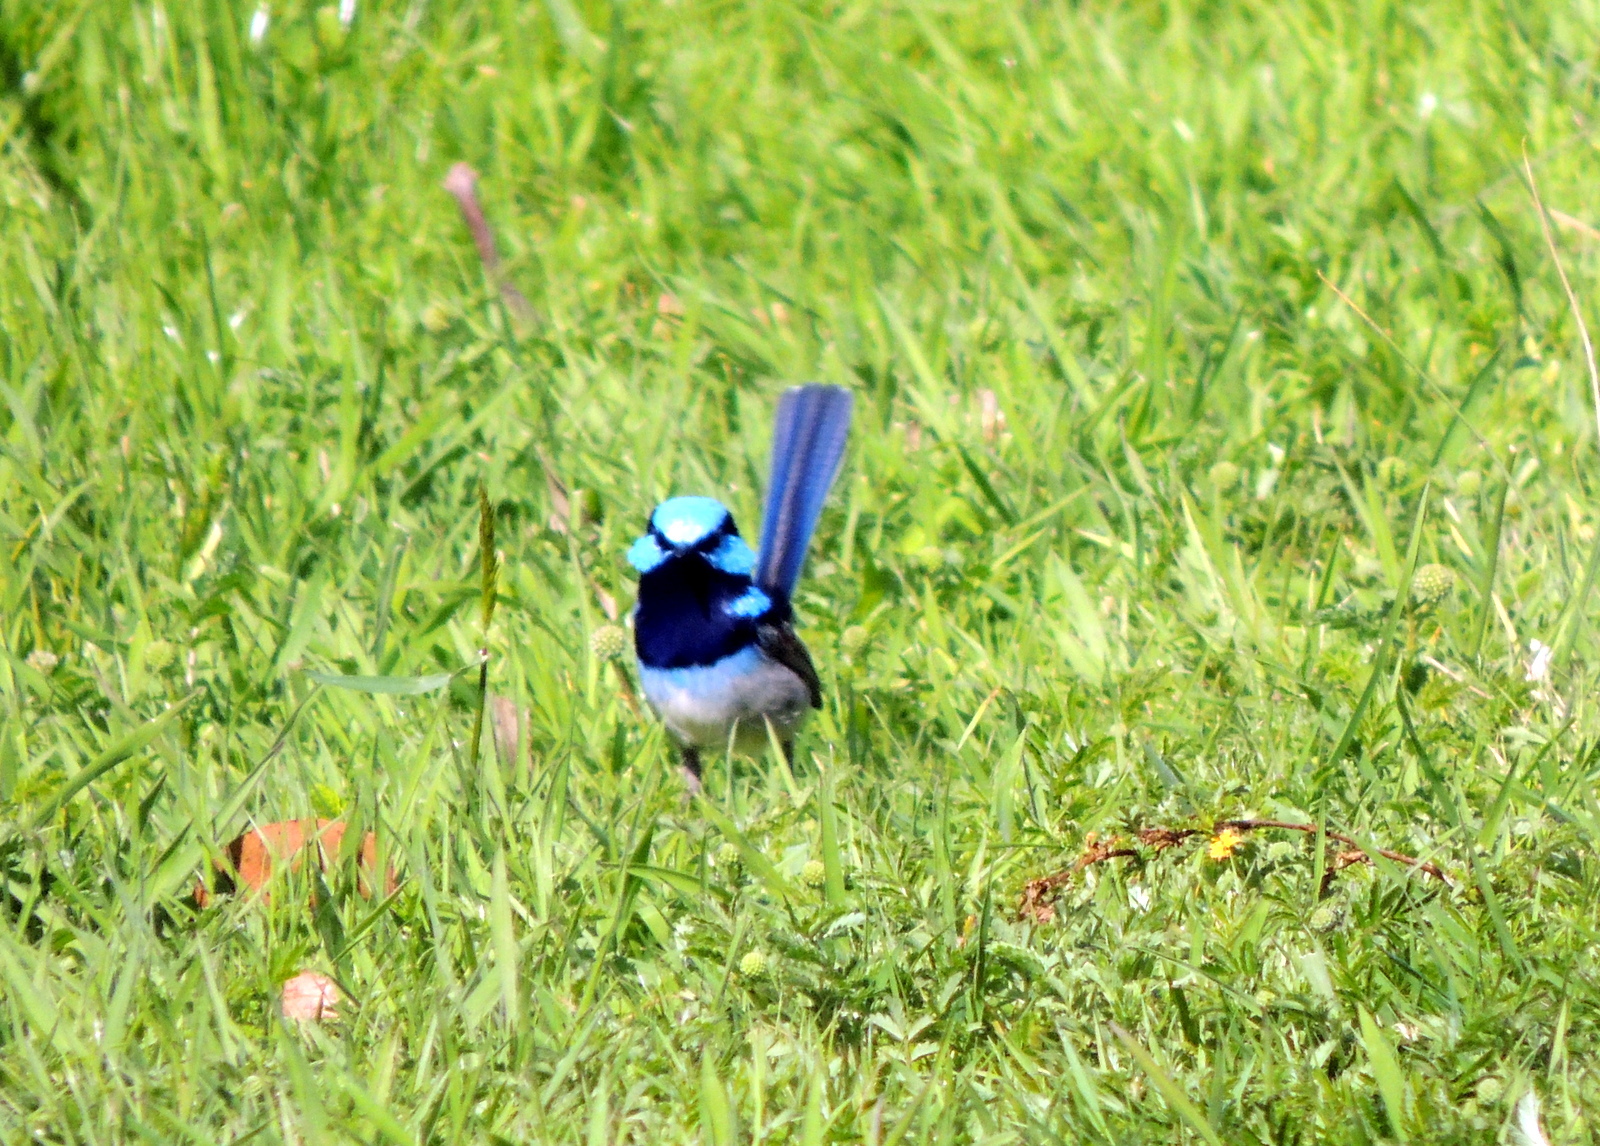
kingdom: Animalia
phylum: Chordata
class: Aves
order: Passeriformes
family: Maluridae
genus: Malurus
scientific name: Malurus cyaneus
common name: Superb fairywren
